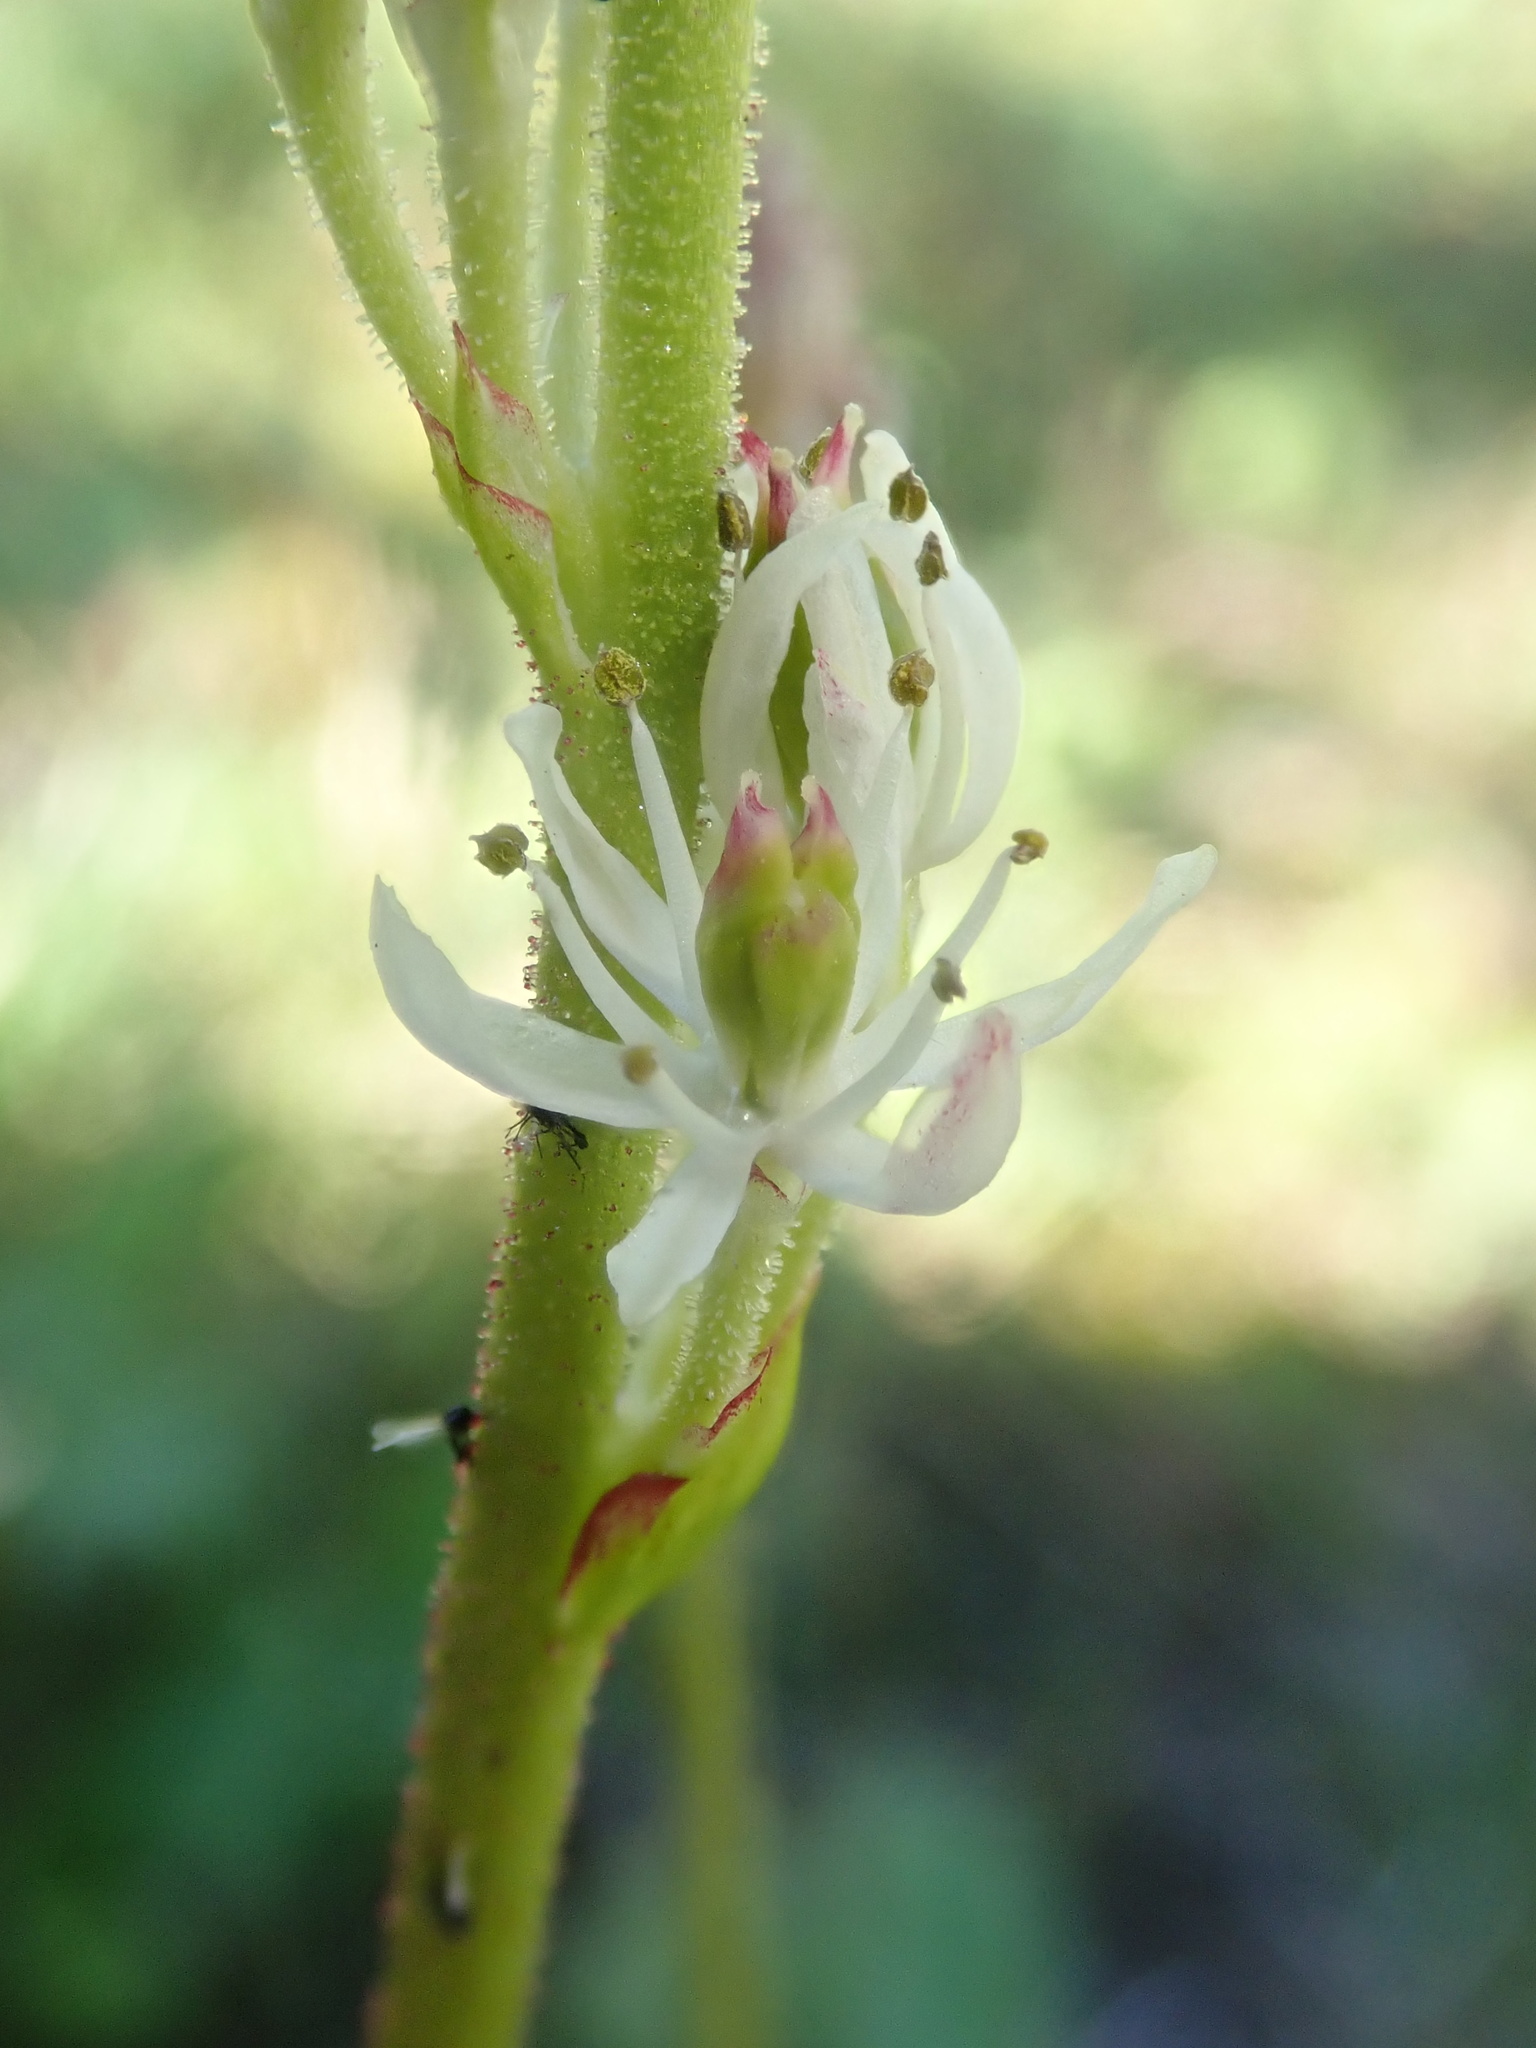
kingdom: Plantae
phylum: Tracheophyta
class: Liliopsida
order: Alismatales
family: Tofieldiaceae
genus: Triantha
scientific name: Triantha occidentalis
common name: Western false asphodel
